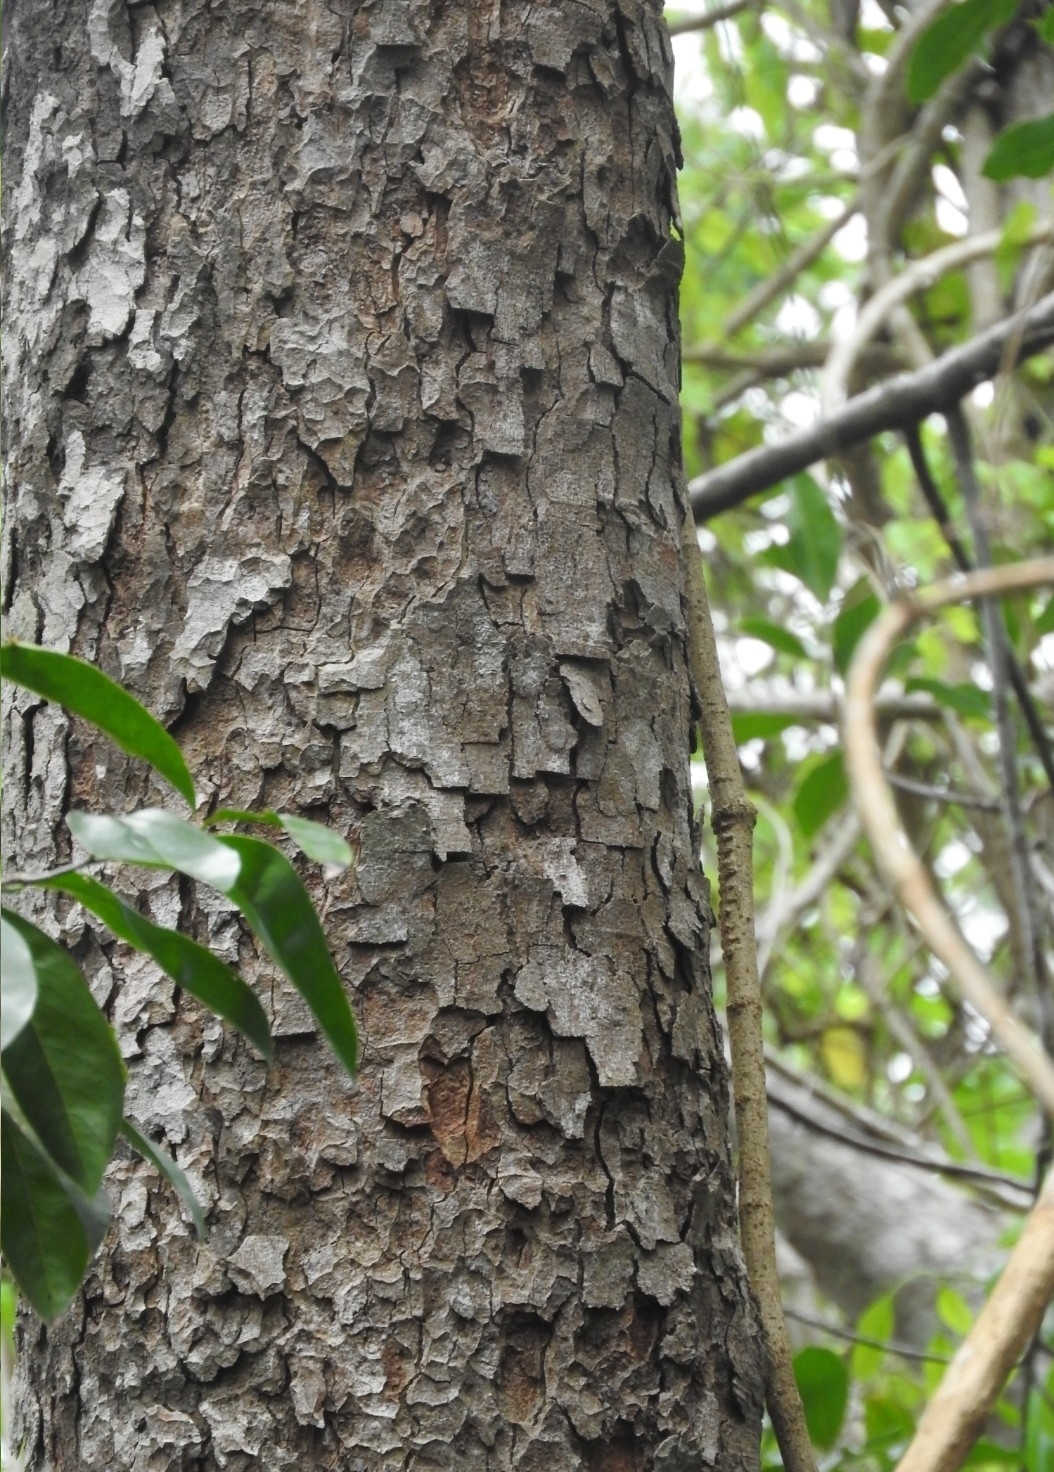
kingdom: Plantae
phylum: Tracheophyta
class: Magnoliopsida
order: Ericales
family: Sapotaceae
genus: Manilkara
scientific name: Manilkara zapota
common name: Sapodilla
